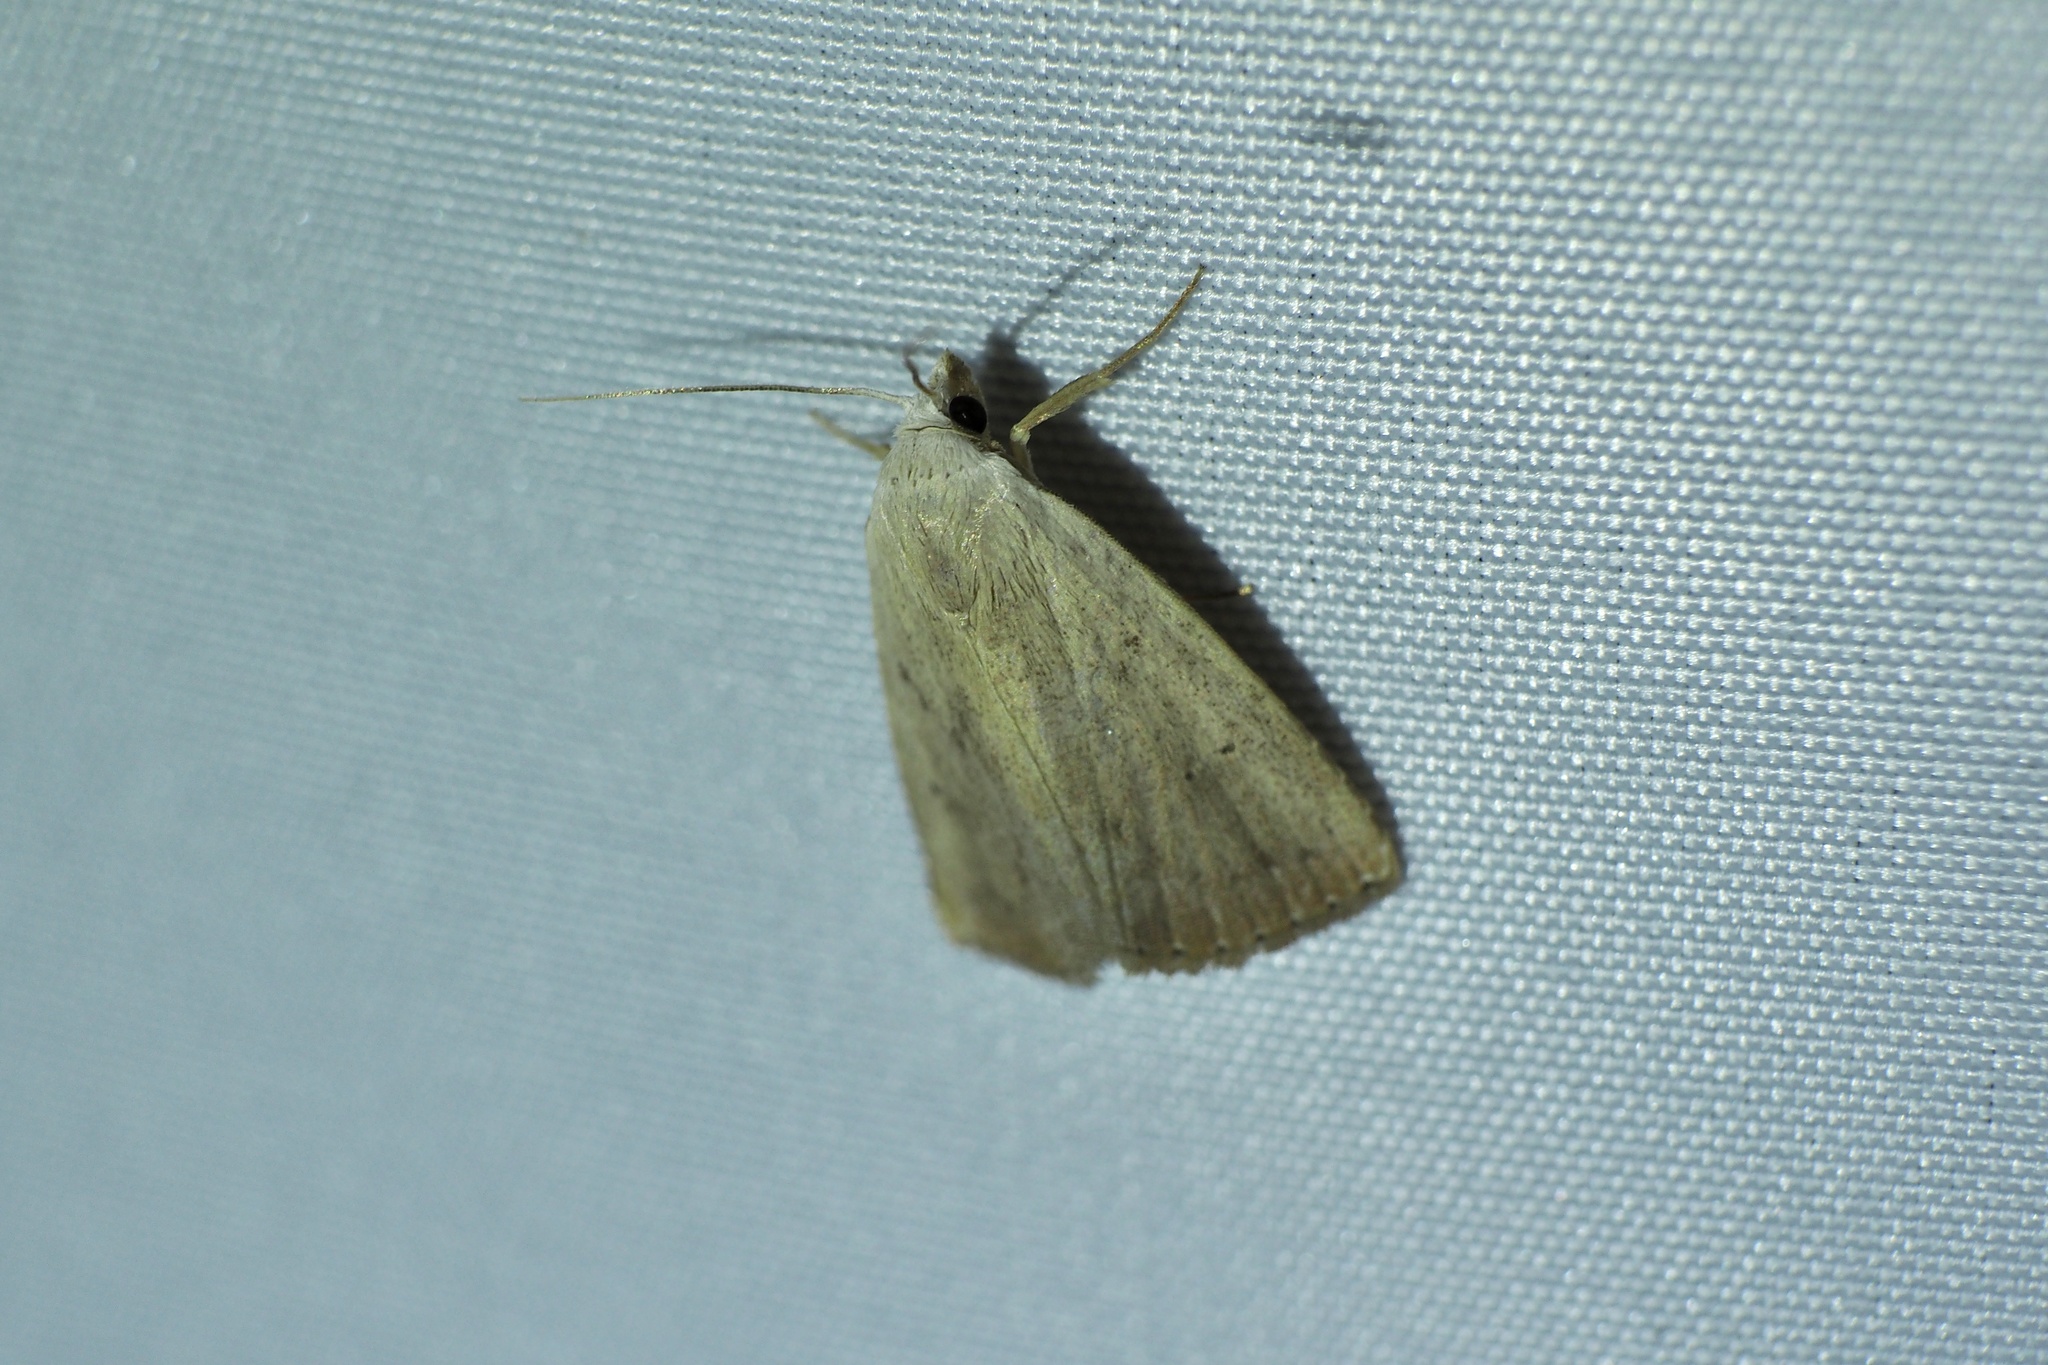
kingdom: Animalia
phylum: Arthropoda
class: Insecta
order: Lepidoptera
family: Erebidae
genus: Rivula
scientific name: Rivula aequalis
